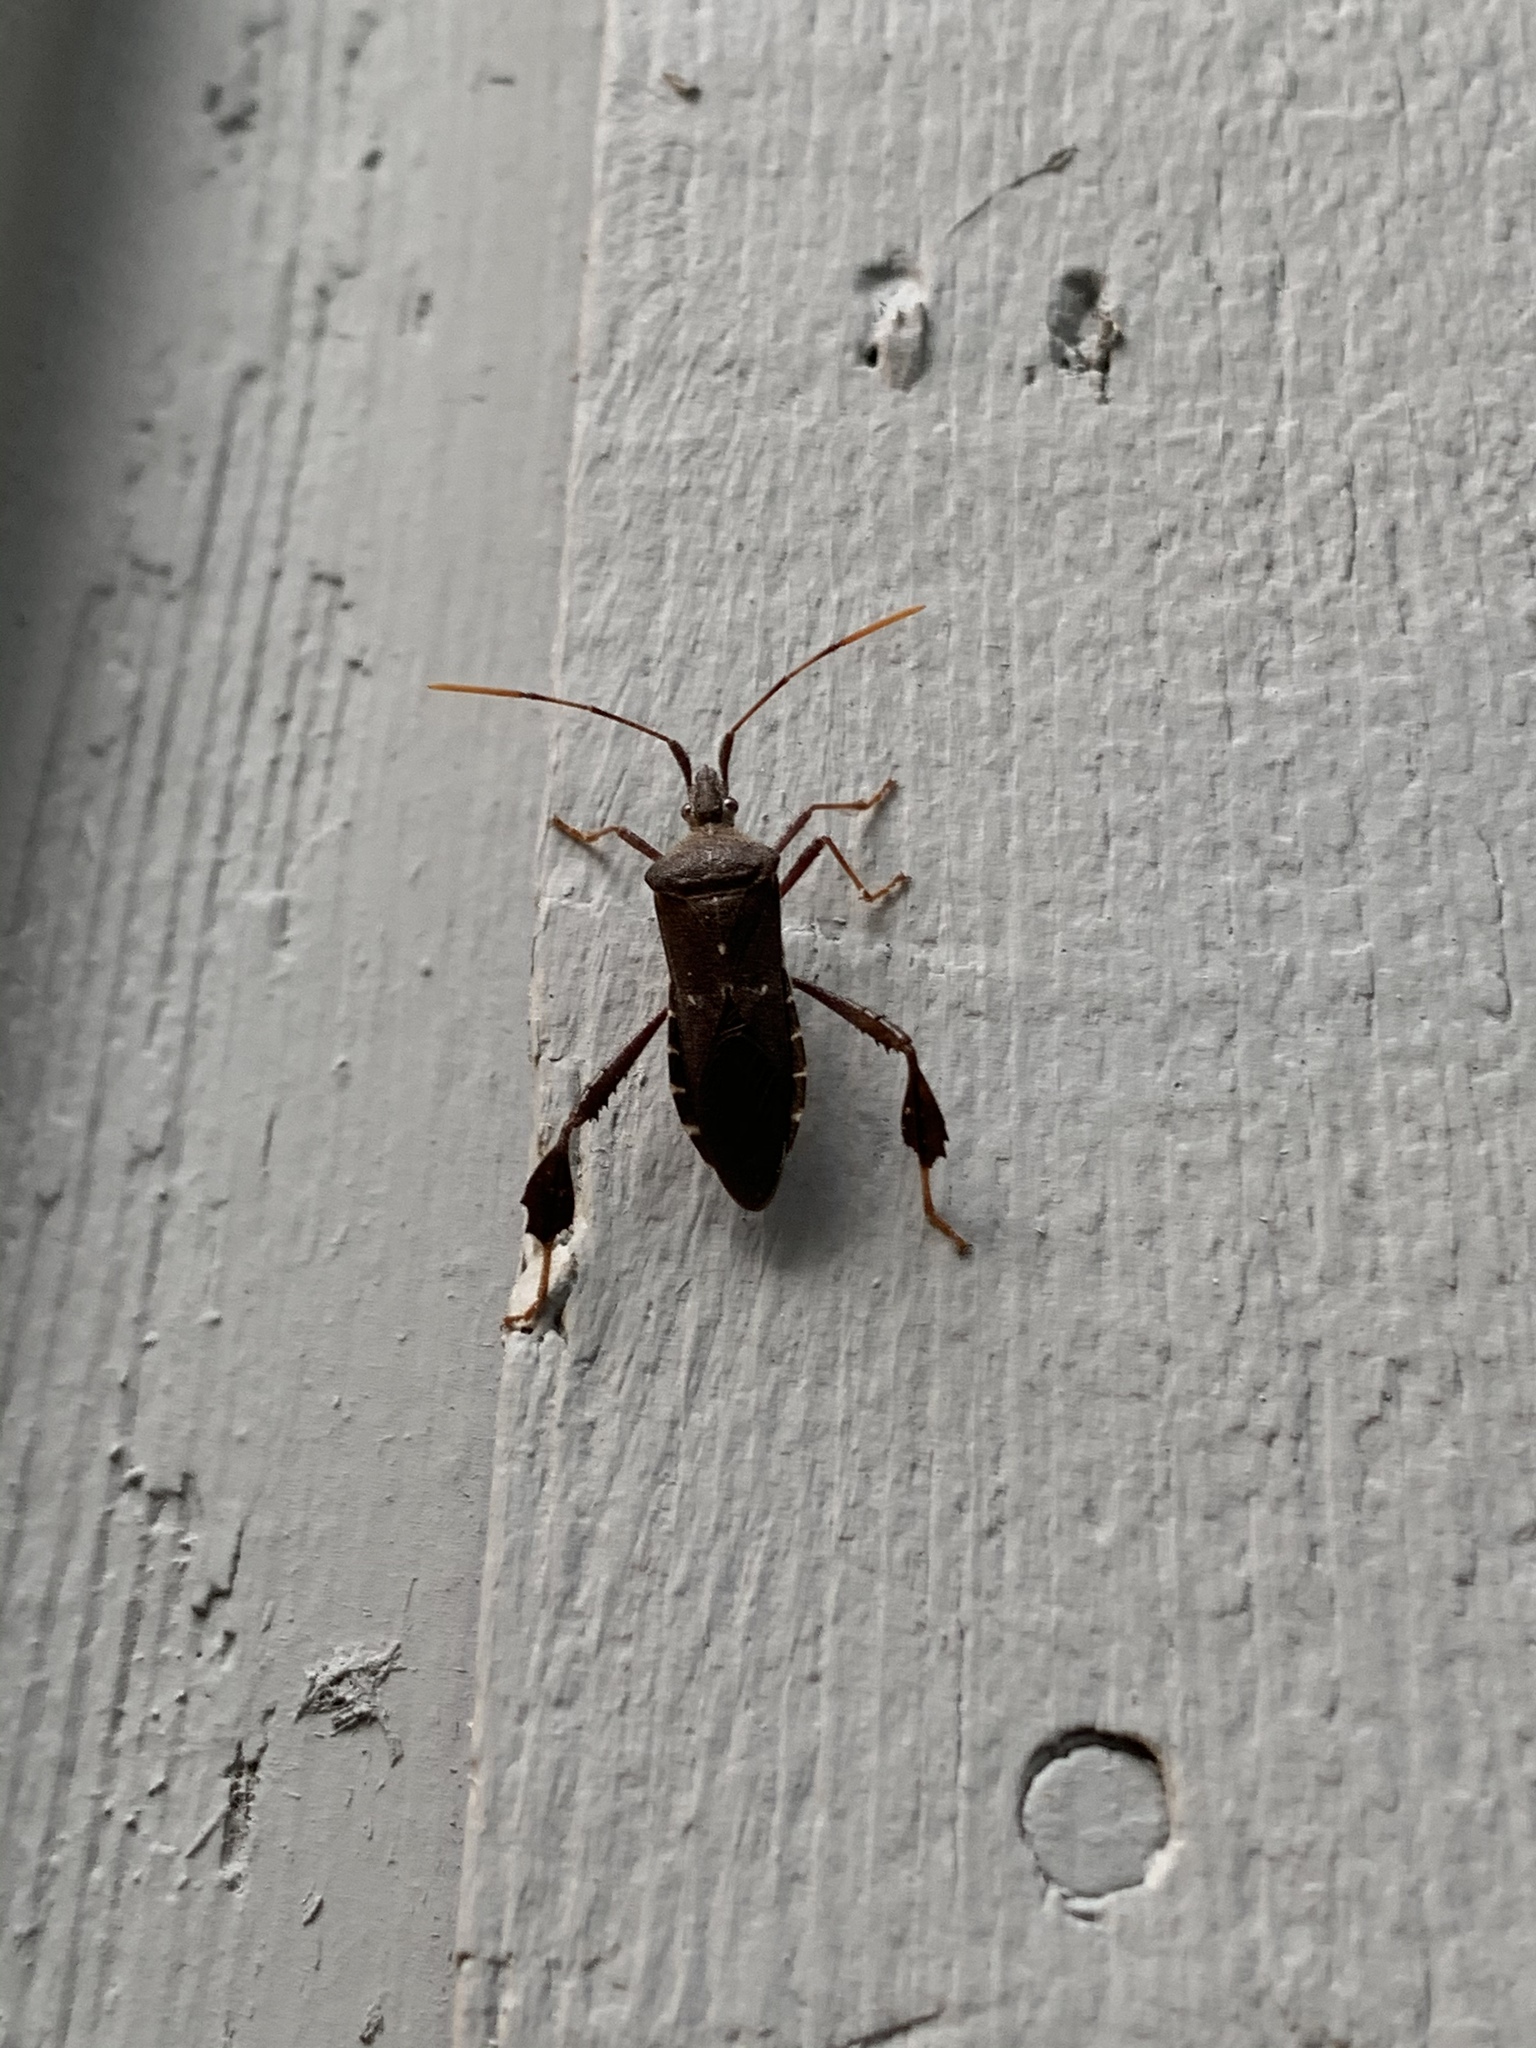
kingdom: Animalia
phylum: Arthropoda
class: Insecta
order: Hemiptera
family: Coreidae
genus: Leptoglossus
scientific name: Leptoglossus oppositus
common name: Northern leaf-footed bug
